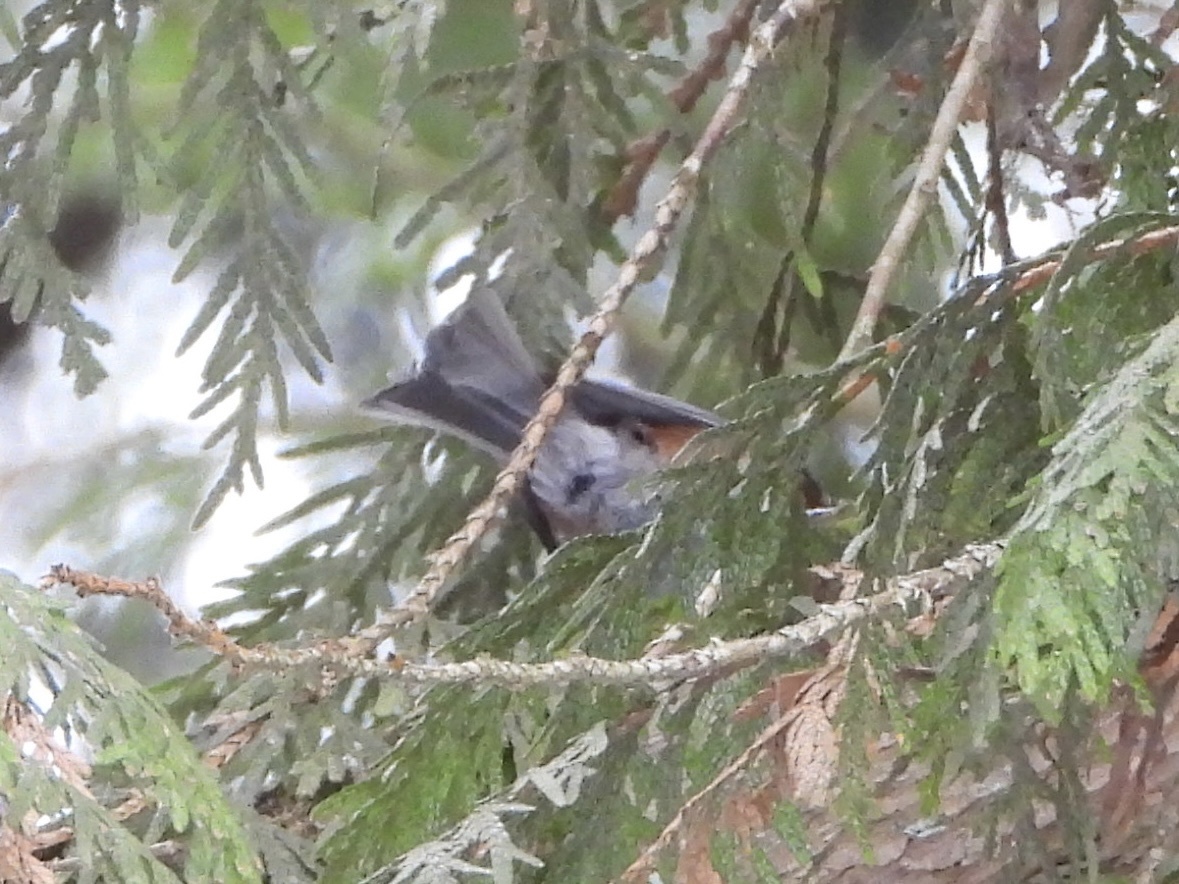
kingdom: Animalia
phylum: Chordata
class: Aves
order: Passeriformes
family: Paridae
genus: Poecile
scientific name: Poecile rufescens
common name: Chestnut-backed chickadee
